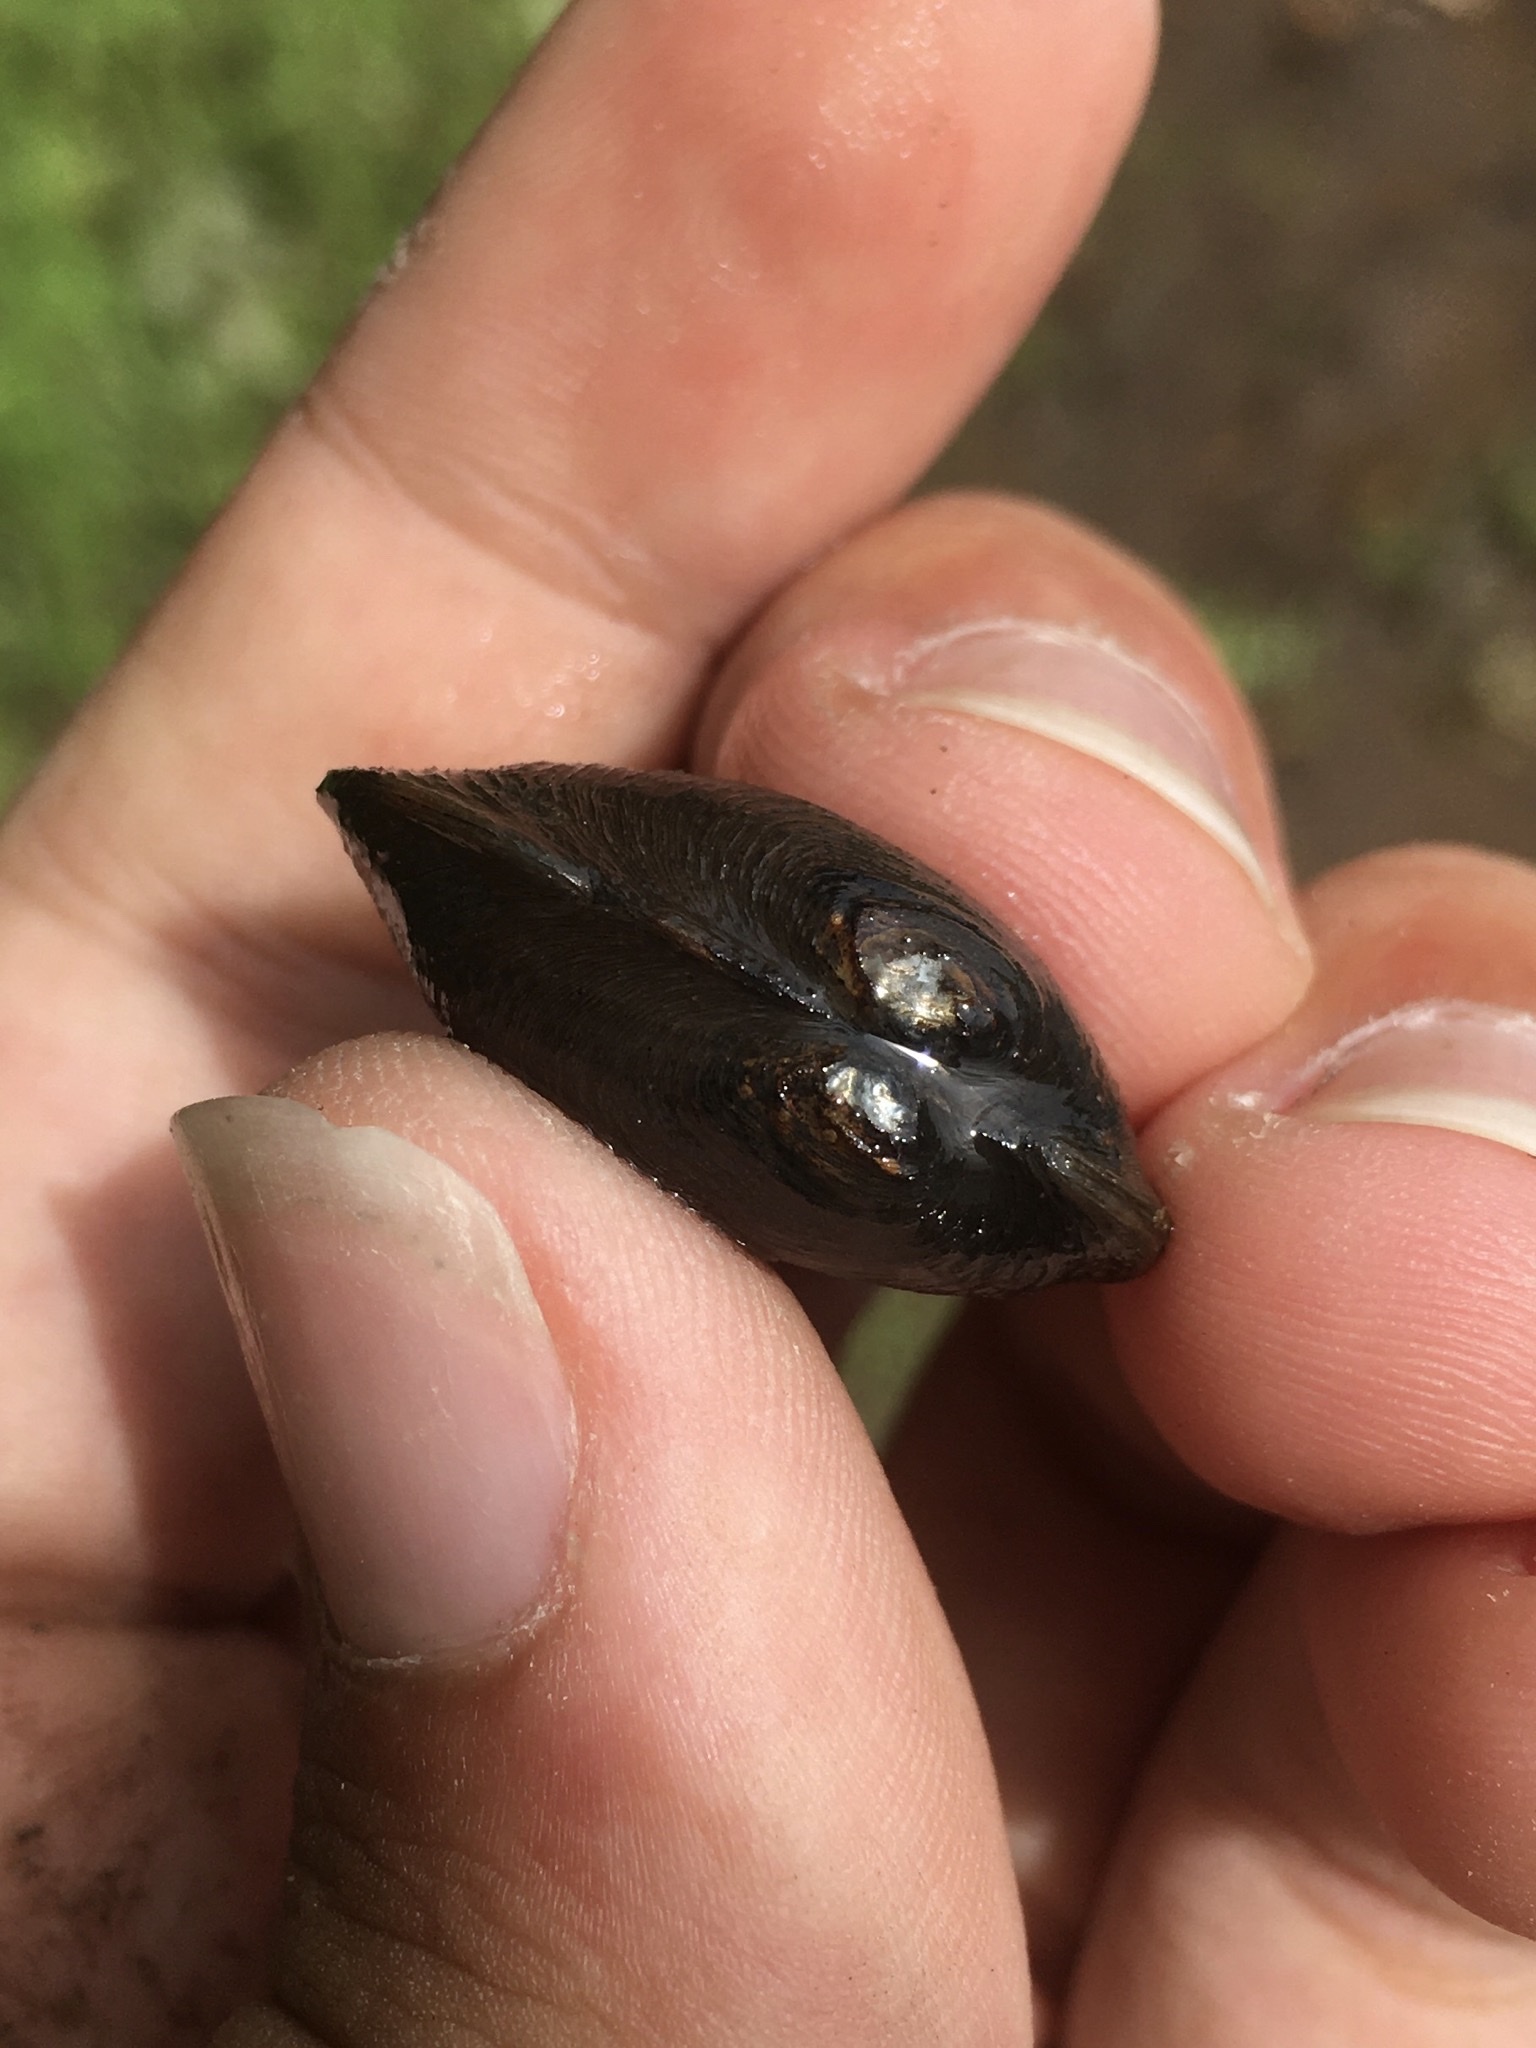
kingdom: Animalia
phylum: Mollusca
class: Bivalvia
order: Unionida
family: Unionidae
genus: Toxolasma
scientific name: Toxolasma parvum
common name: Lilliput
